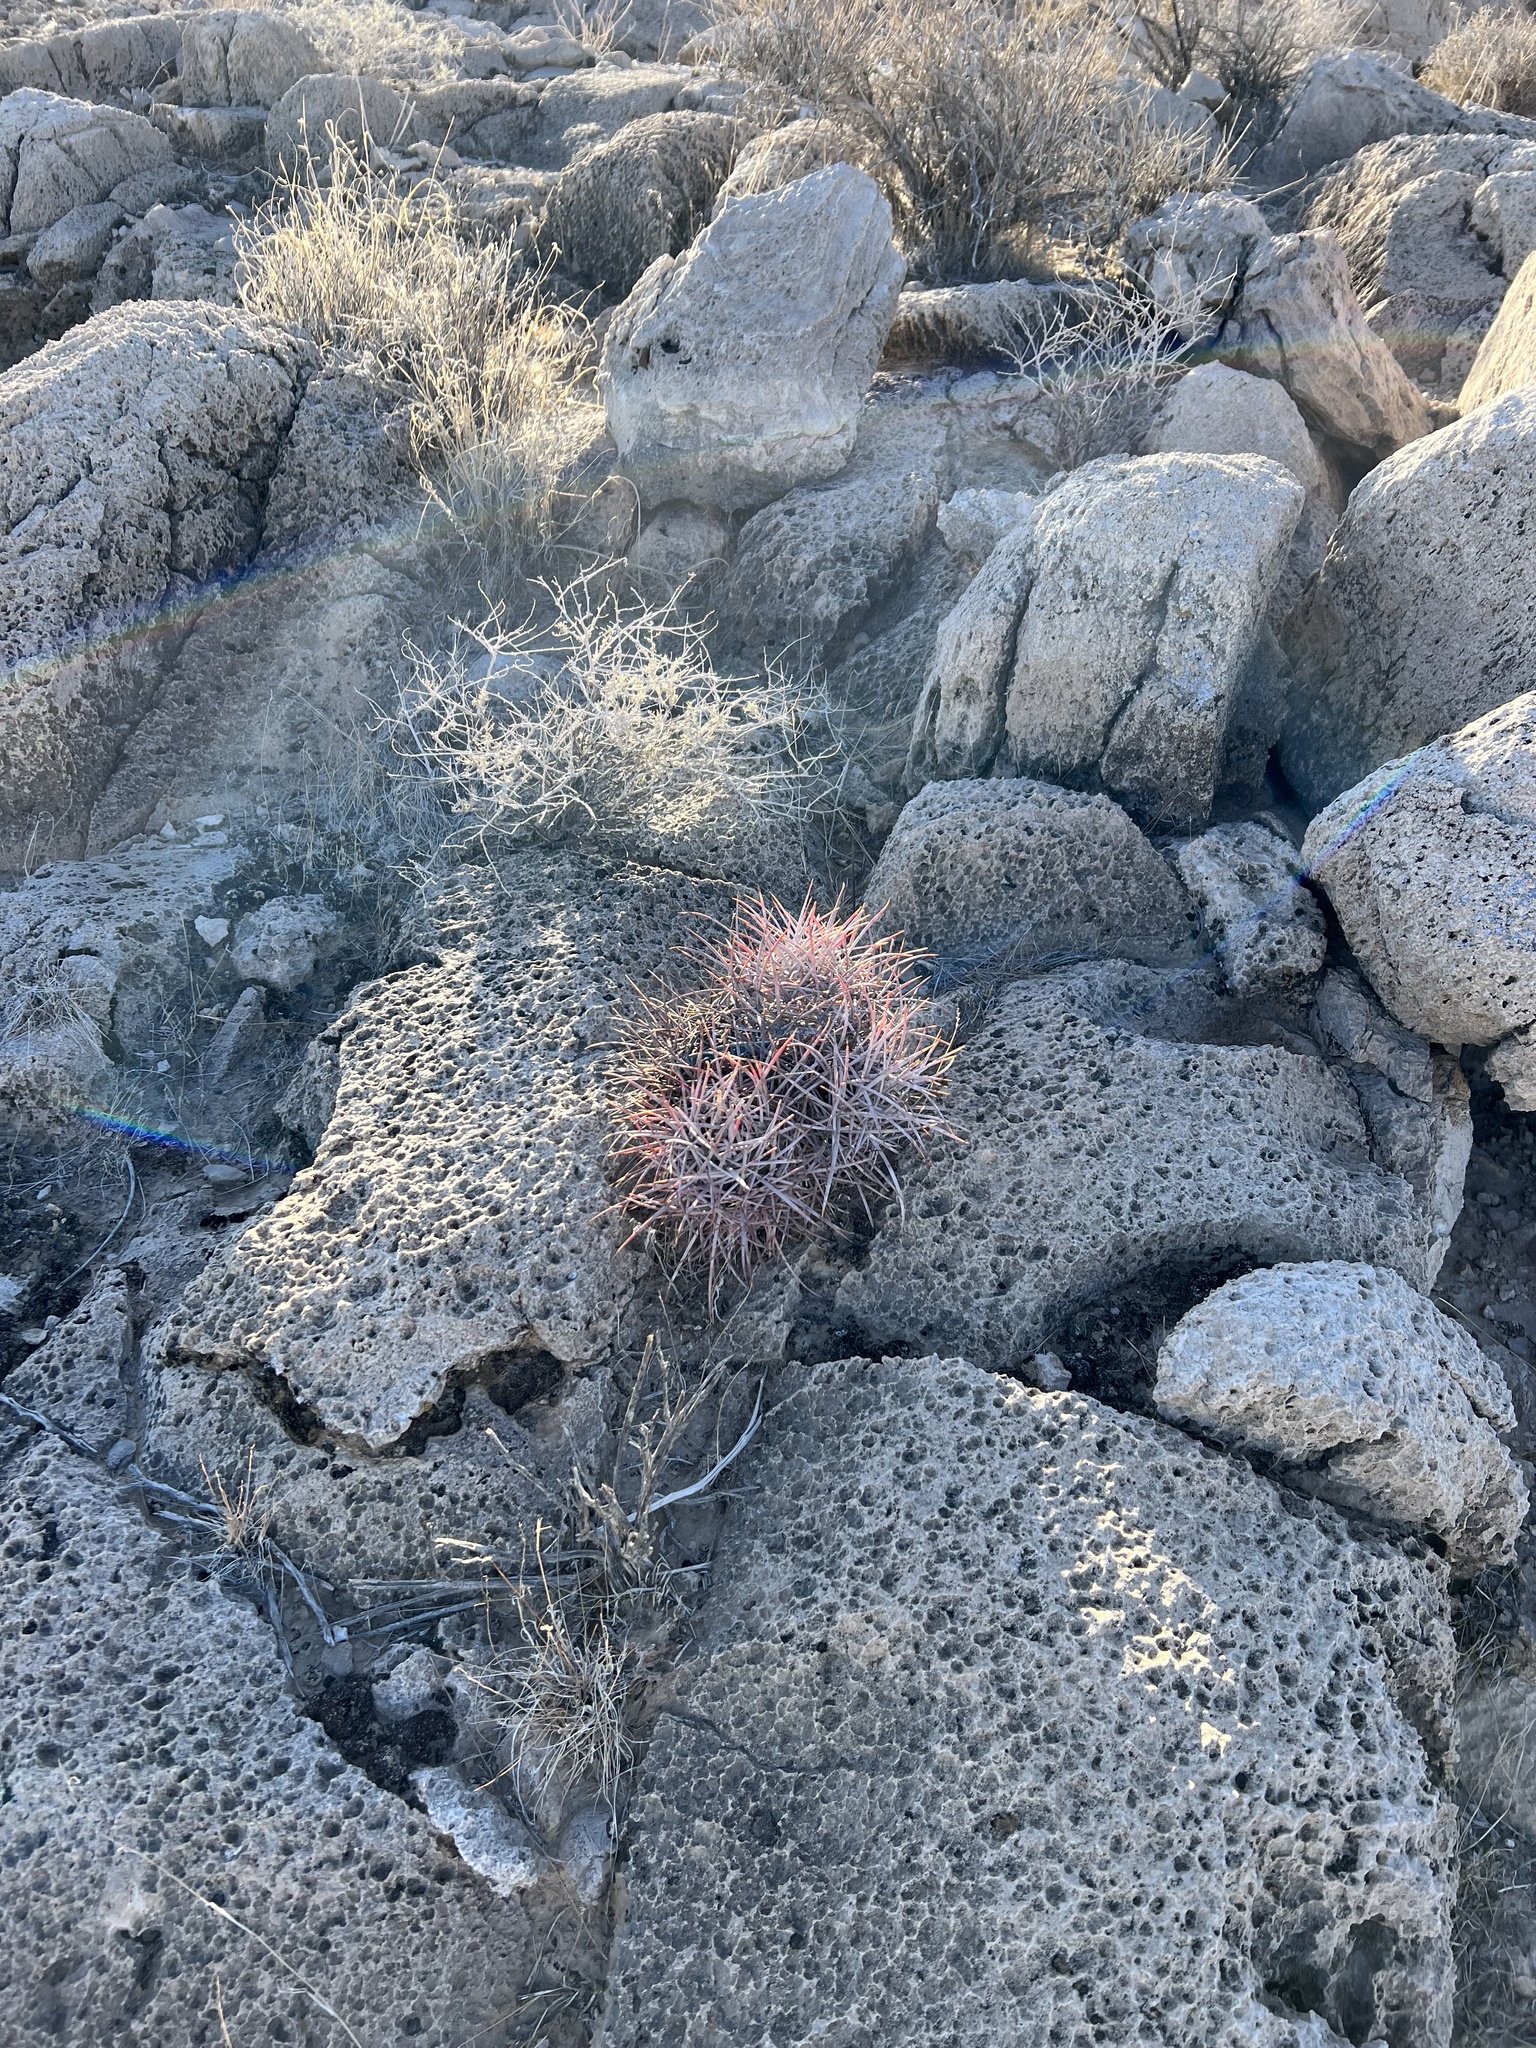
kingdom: Plantae
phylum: Tracheophyta
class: Magnoliopsida
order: Caryophyllales
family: Cactaceae
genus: Echinocactus
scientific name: Echinocactus polycephalus
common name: Cottontop cactus
